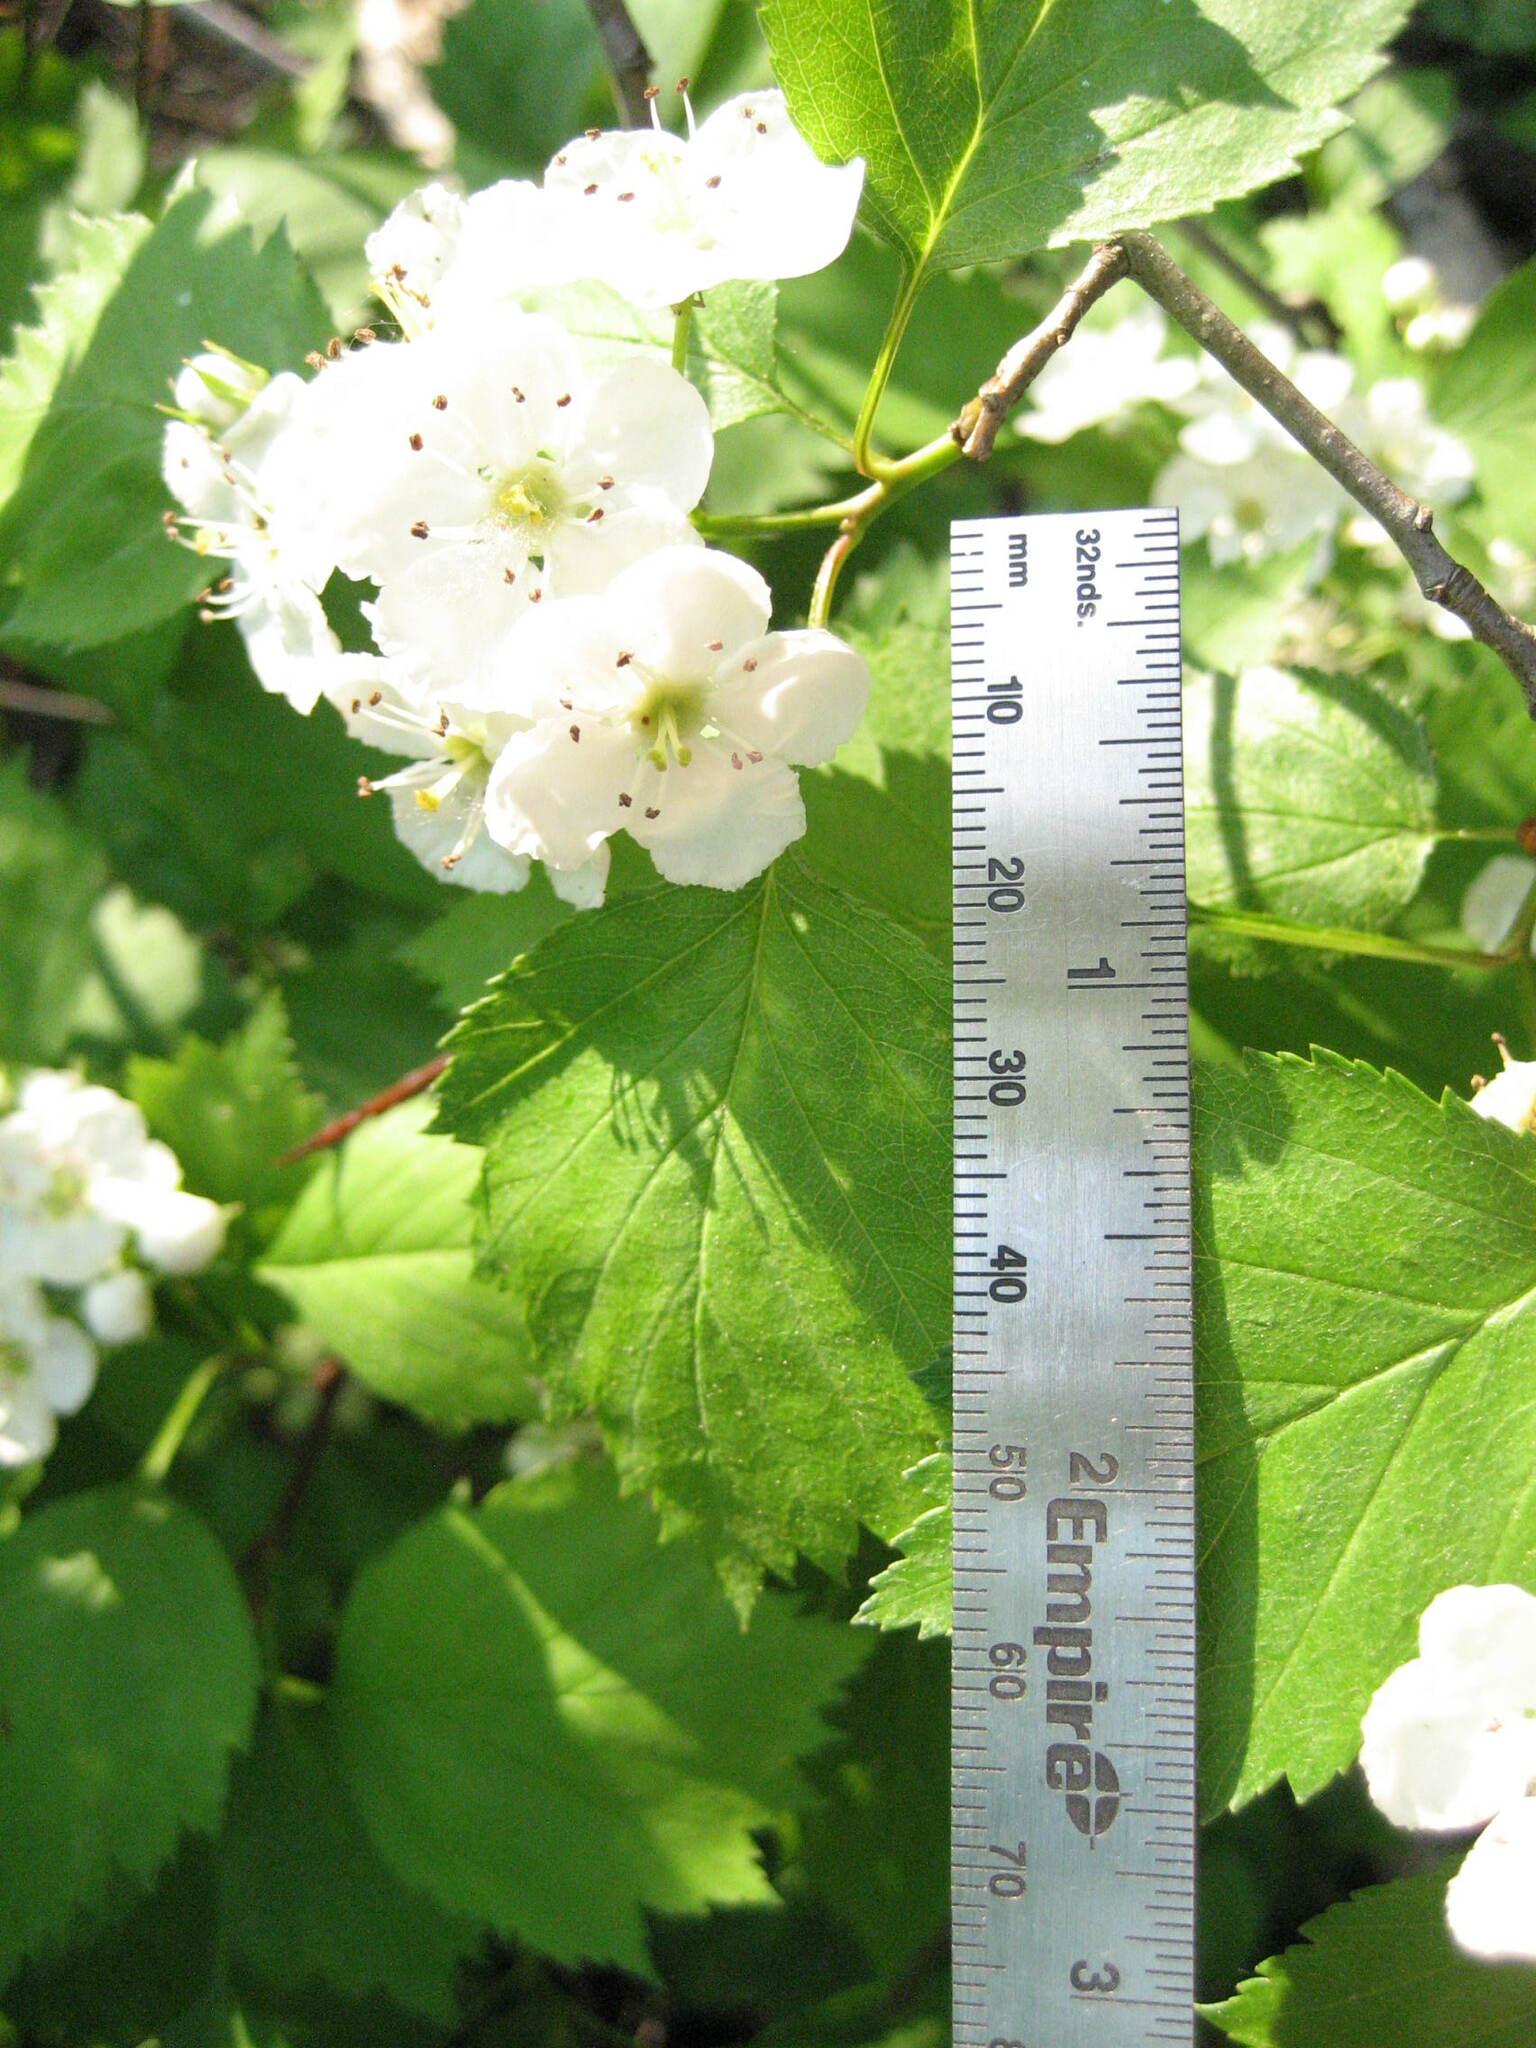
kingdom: Plantae
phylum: Tracheophyta
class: Magnoliopsida
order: Rosales
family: Rosaceae
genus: Crataegus
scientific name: Crataegus macrosperma
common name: Variable hawthorn
